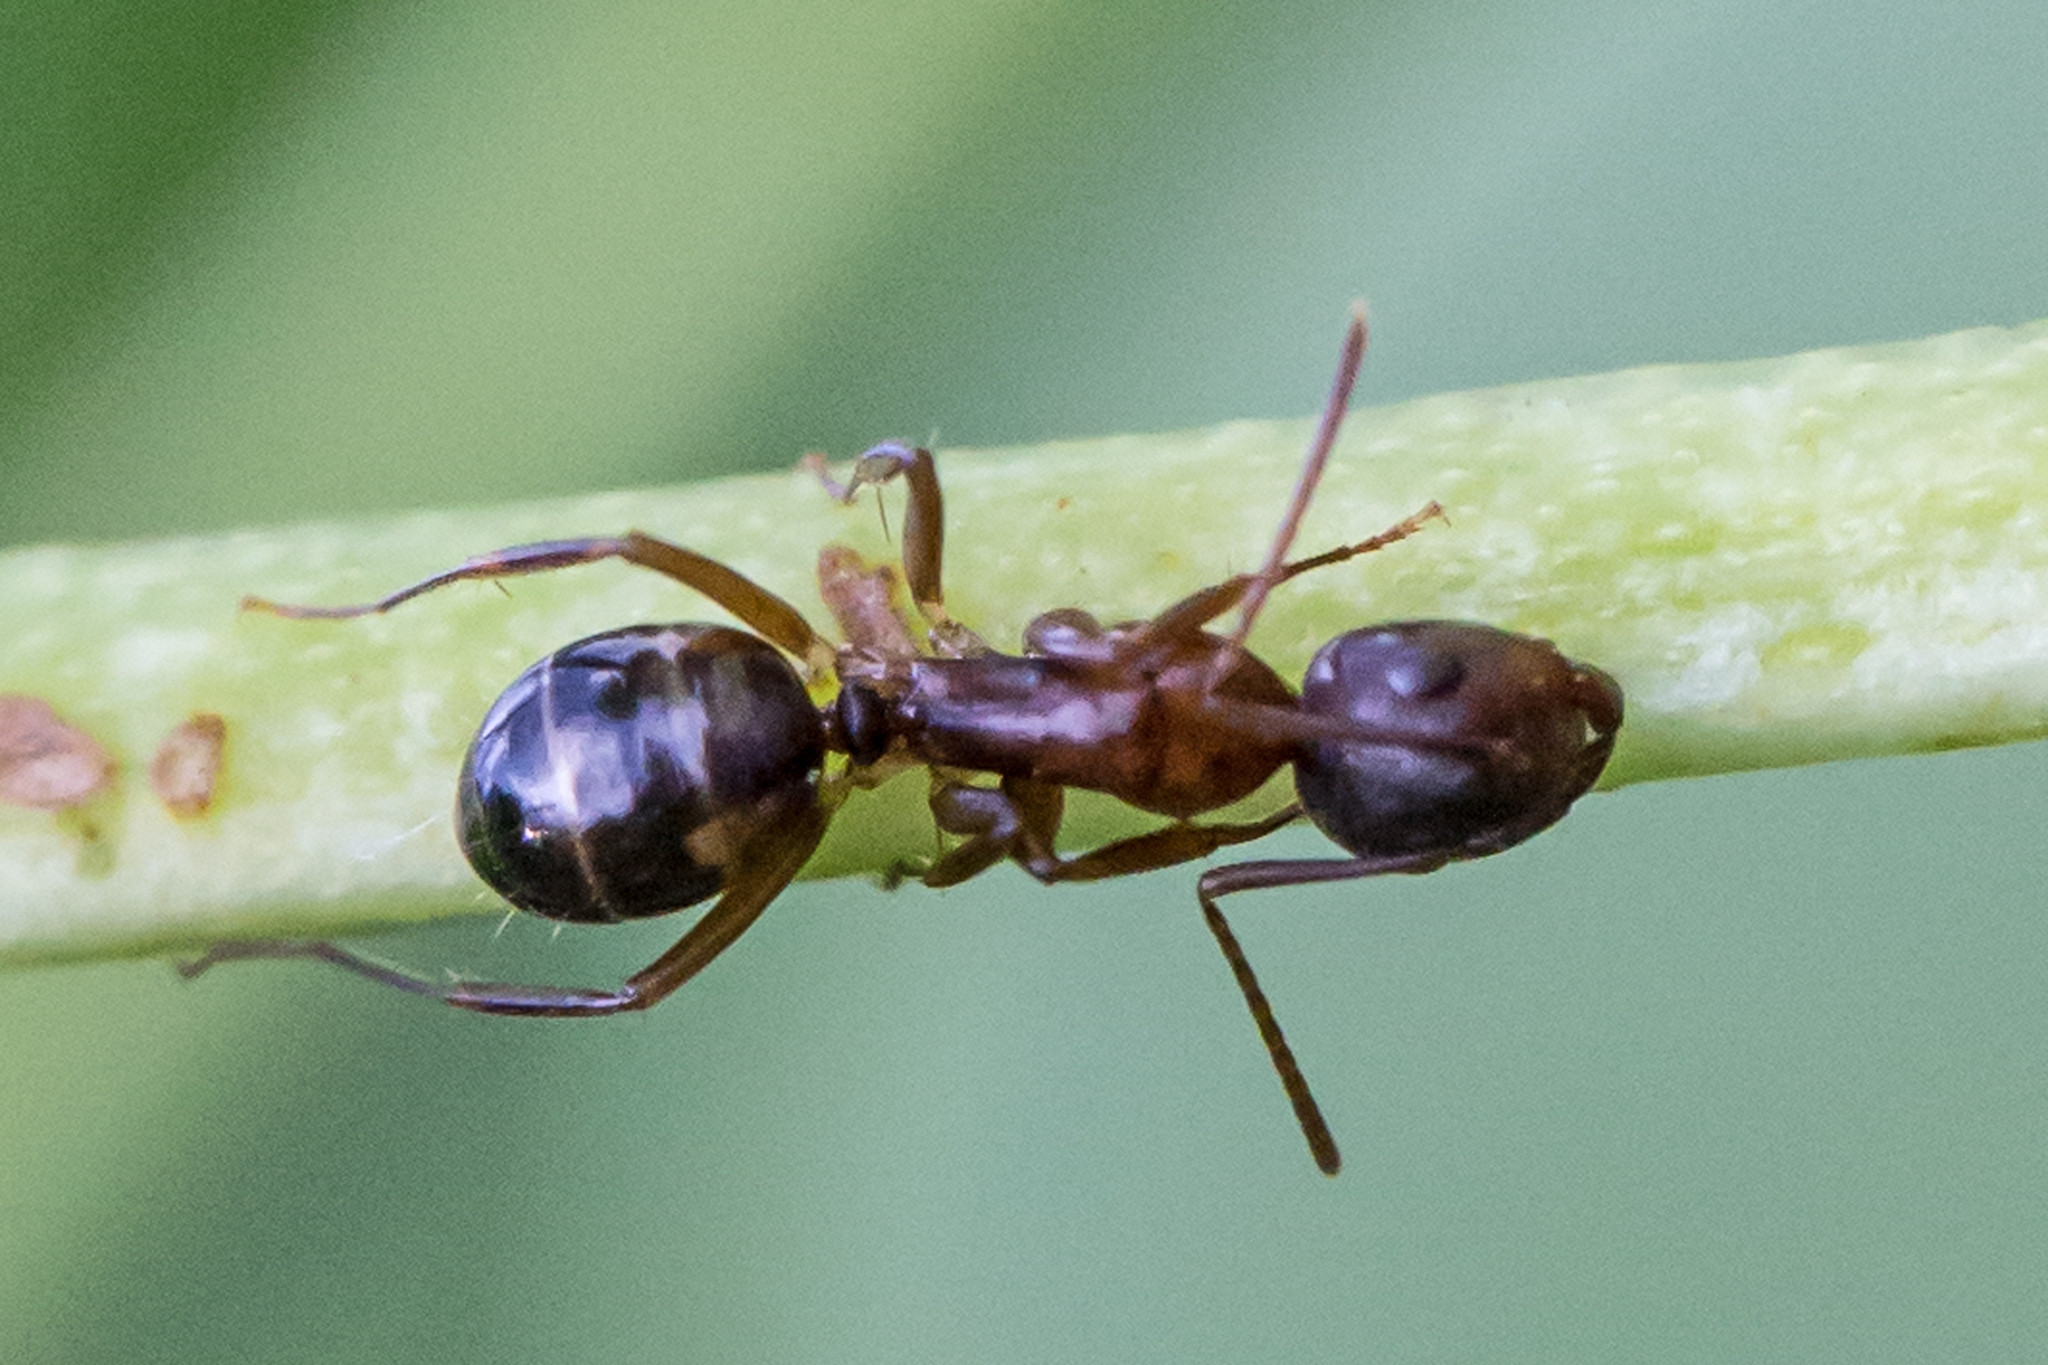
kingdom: Animalia
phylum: Arthropoda
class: Insecta
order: Hymenoptera
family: Formicidae
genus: Camponotus
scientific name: Camponotus subbarbatus
